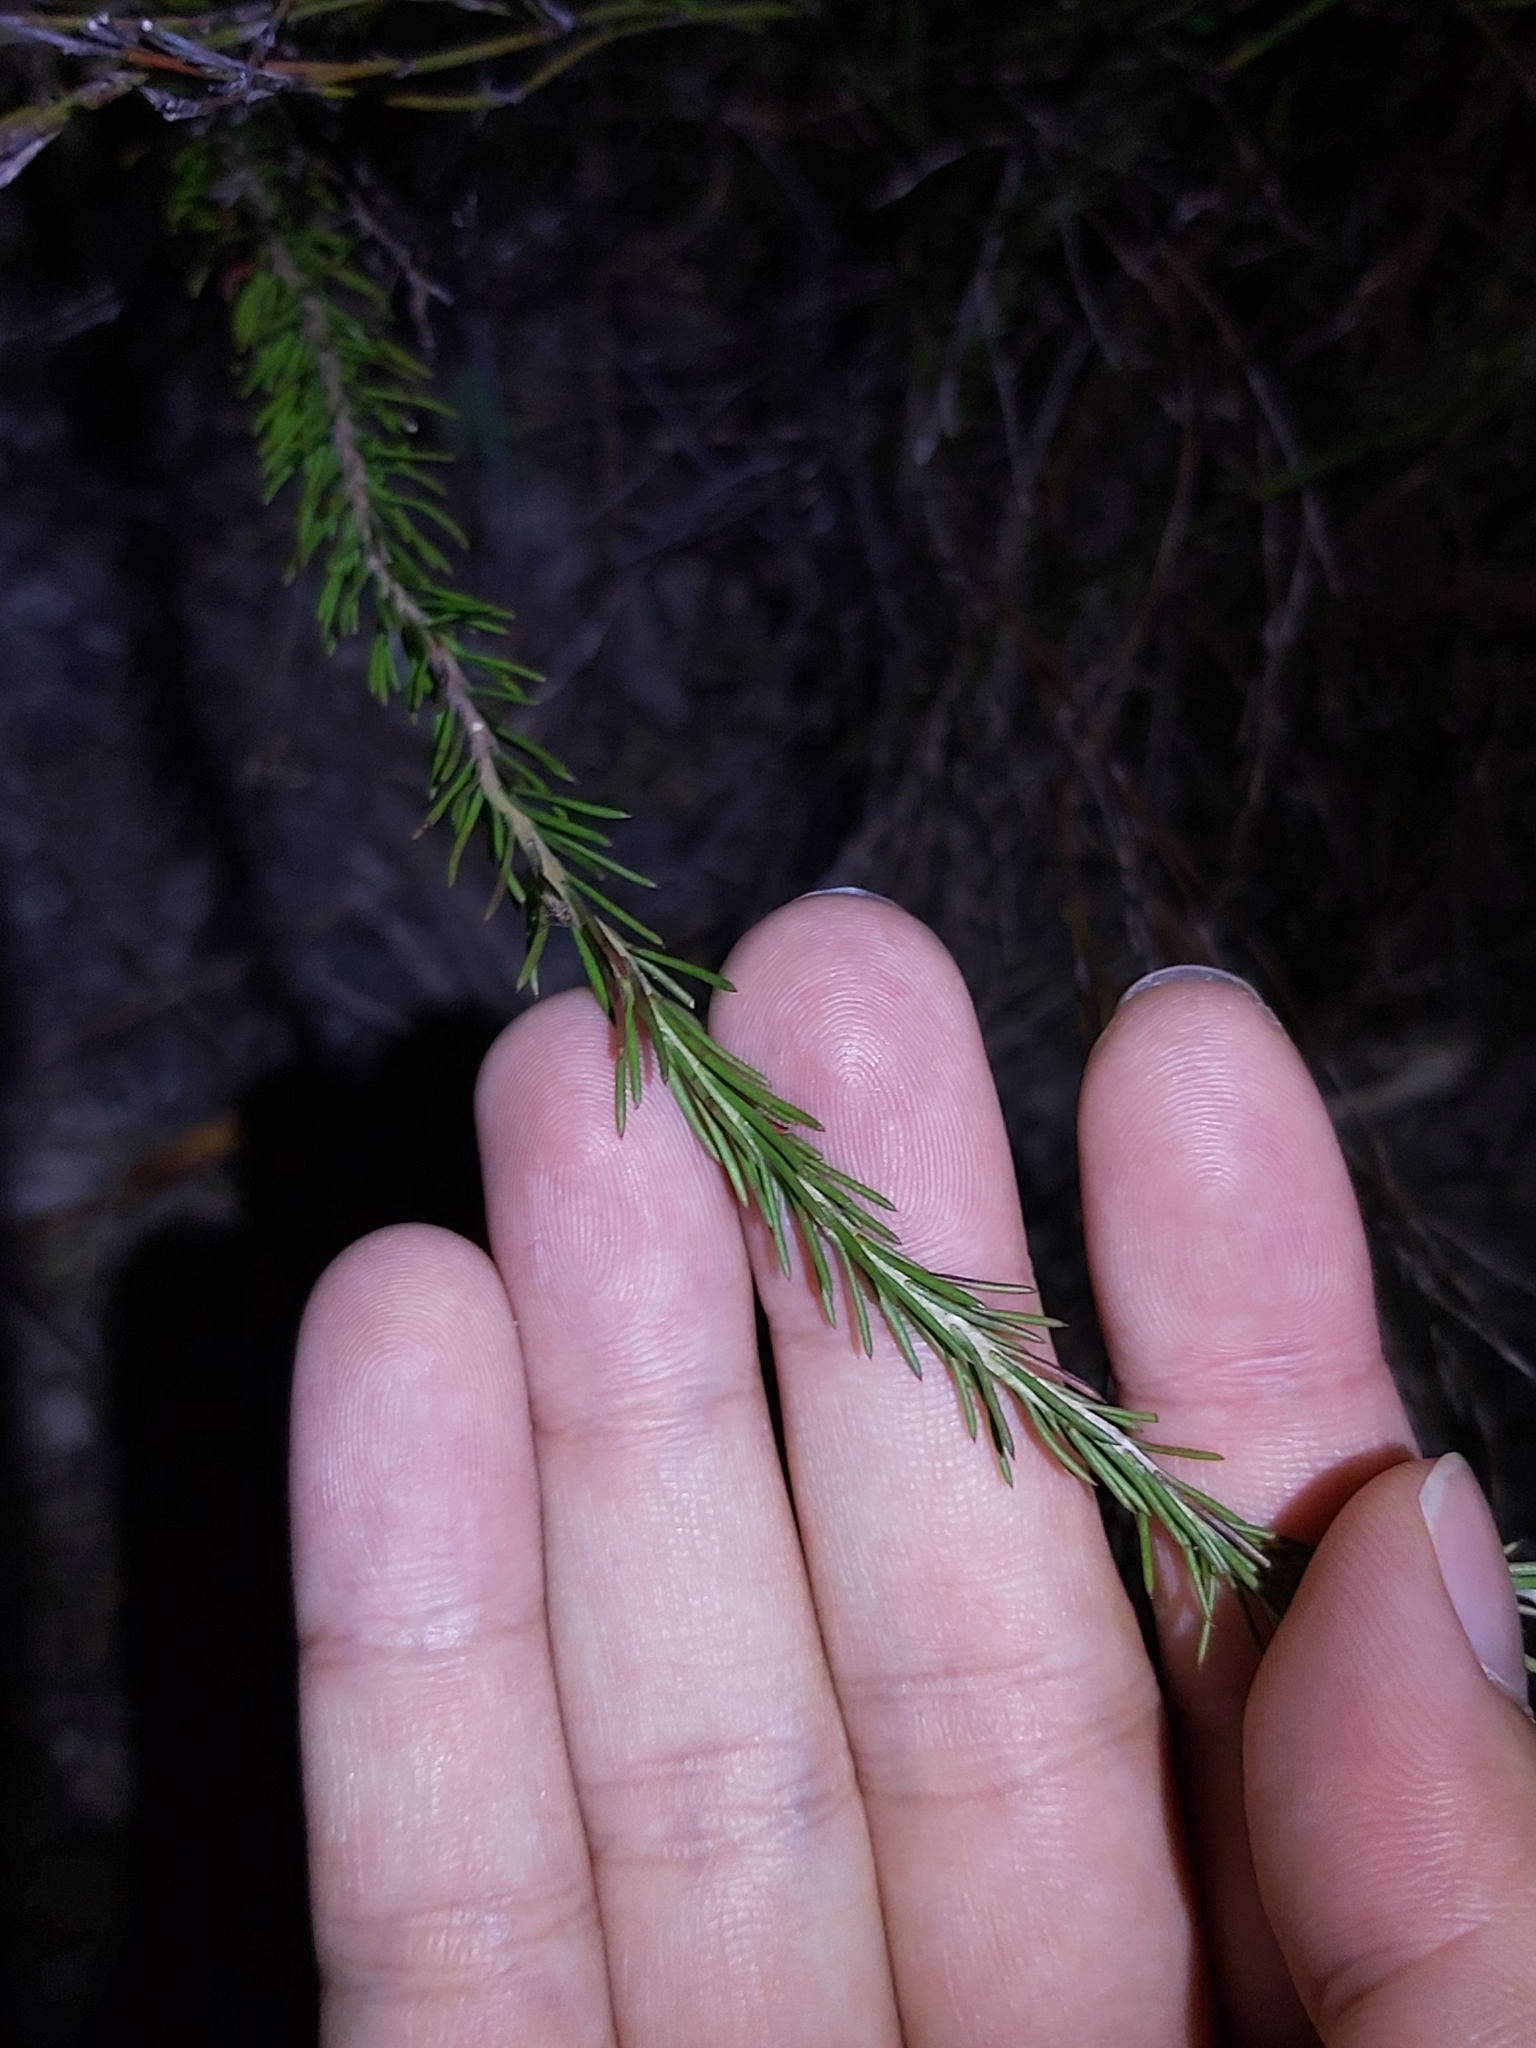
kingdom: Plantae
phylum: Tracheophyta
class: Magnoliopsida
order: Proteales
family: Proteaceae
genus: Conospermum
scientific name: Conospermum taxifolium
